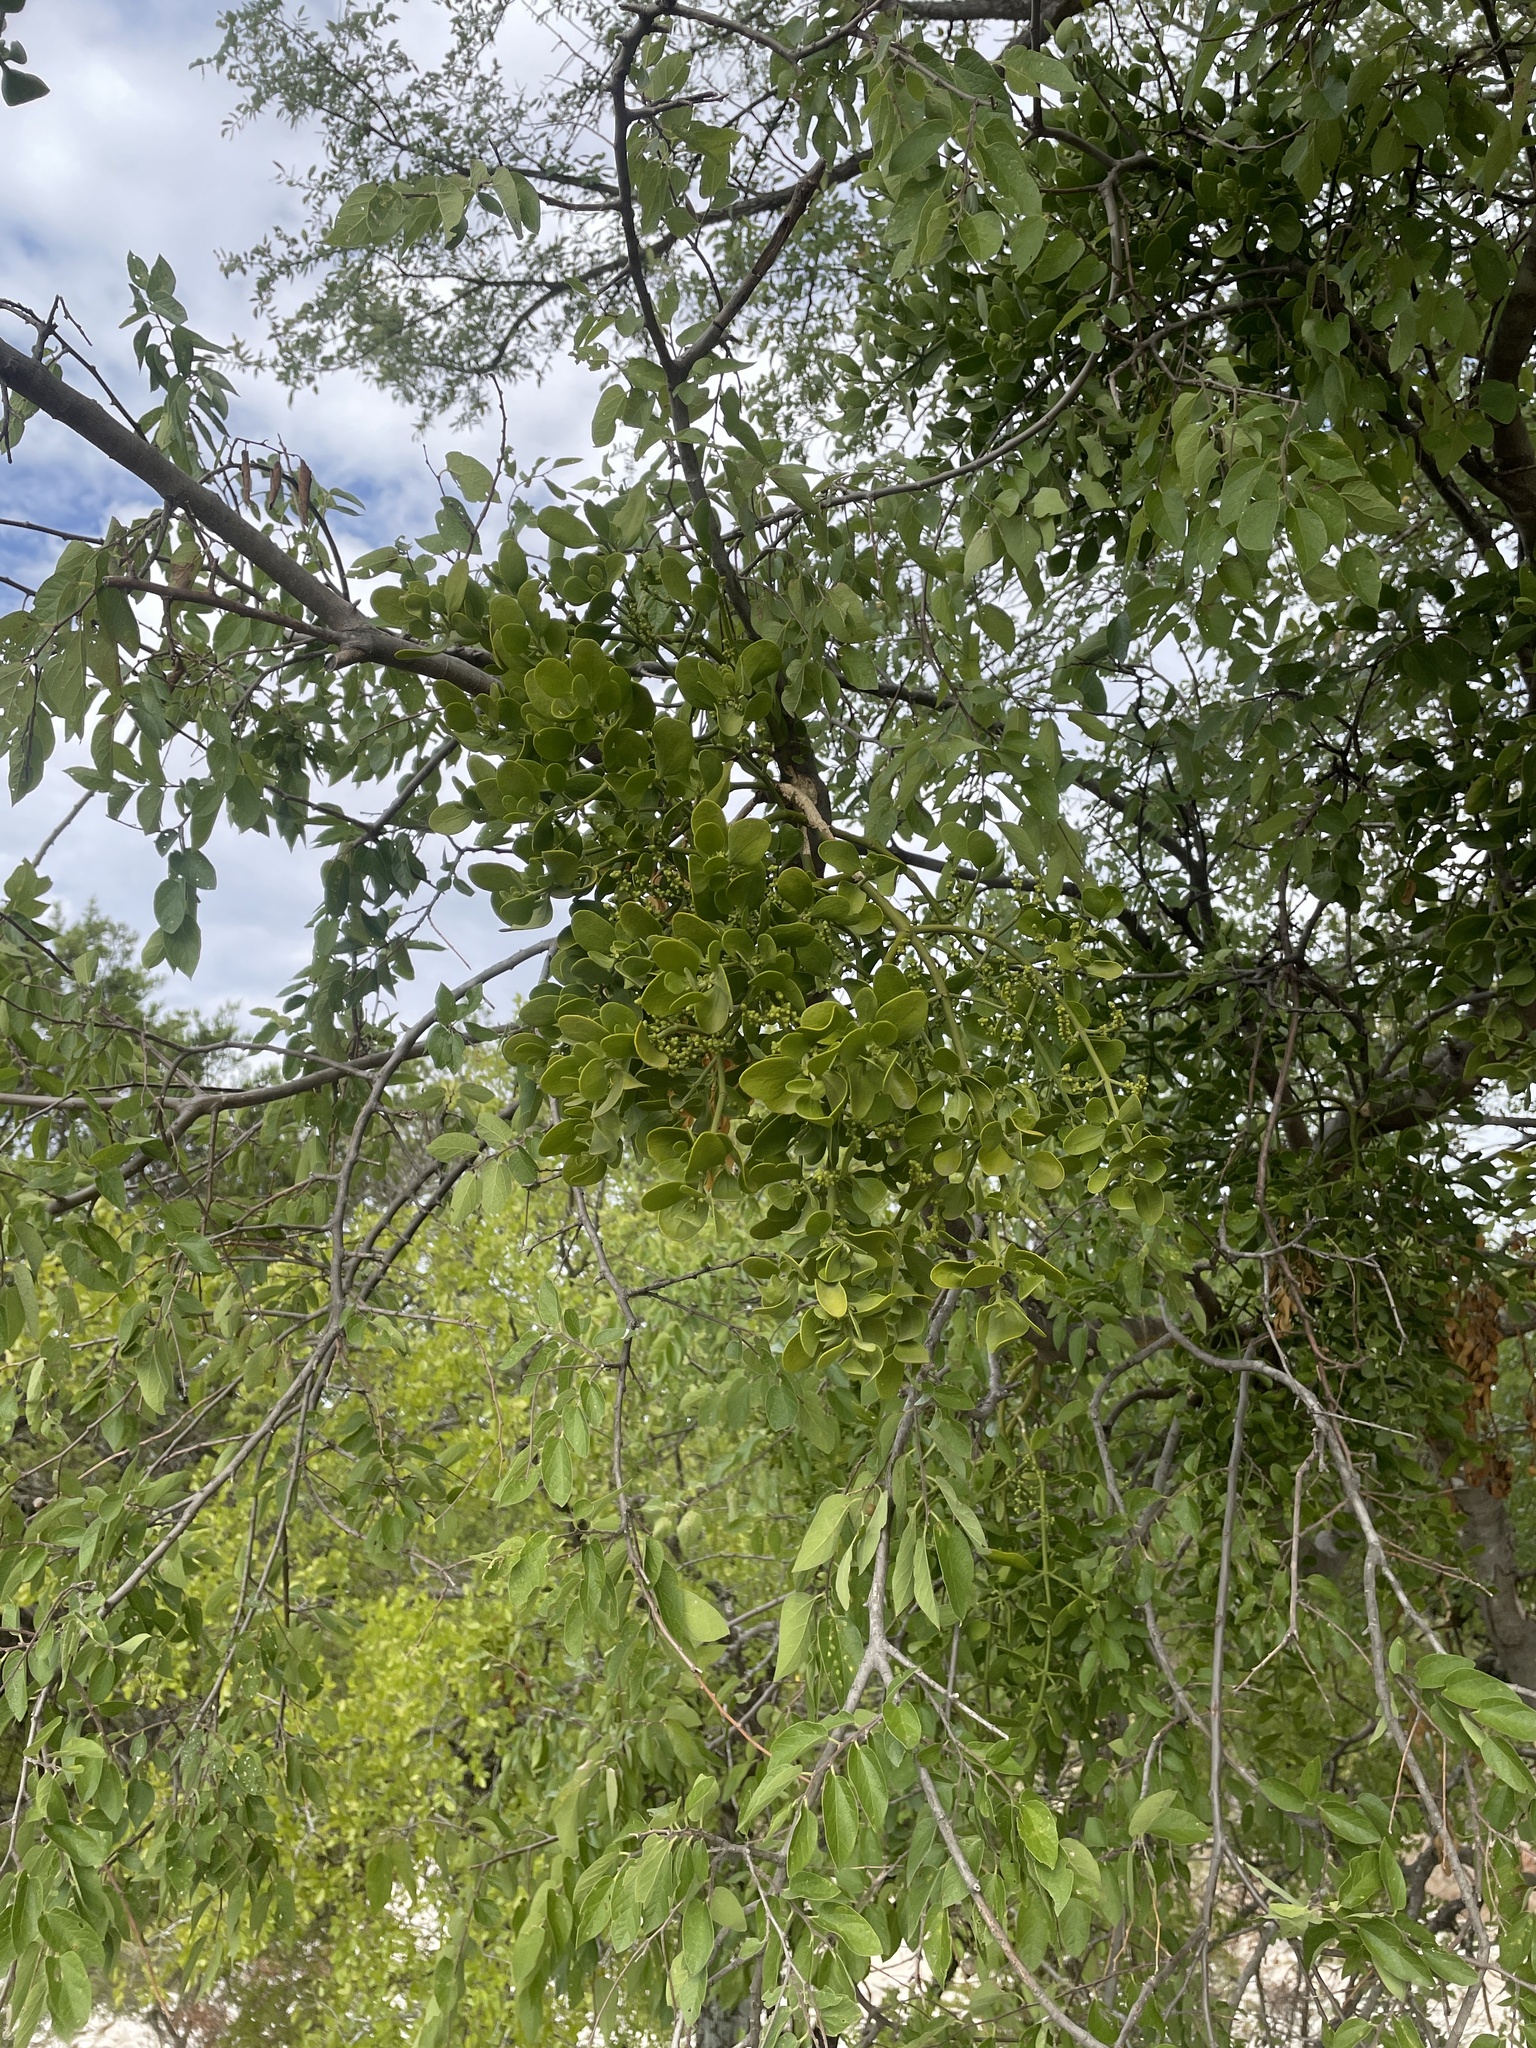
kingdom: Plantae
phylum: Tracheophyta
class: Magnoliopsida
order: Santalales
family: Viscaceae
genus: Phoradendron
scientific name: Phoradendron leucarpum
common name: Pacific mistletoe
